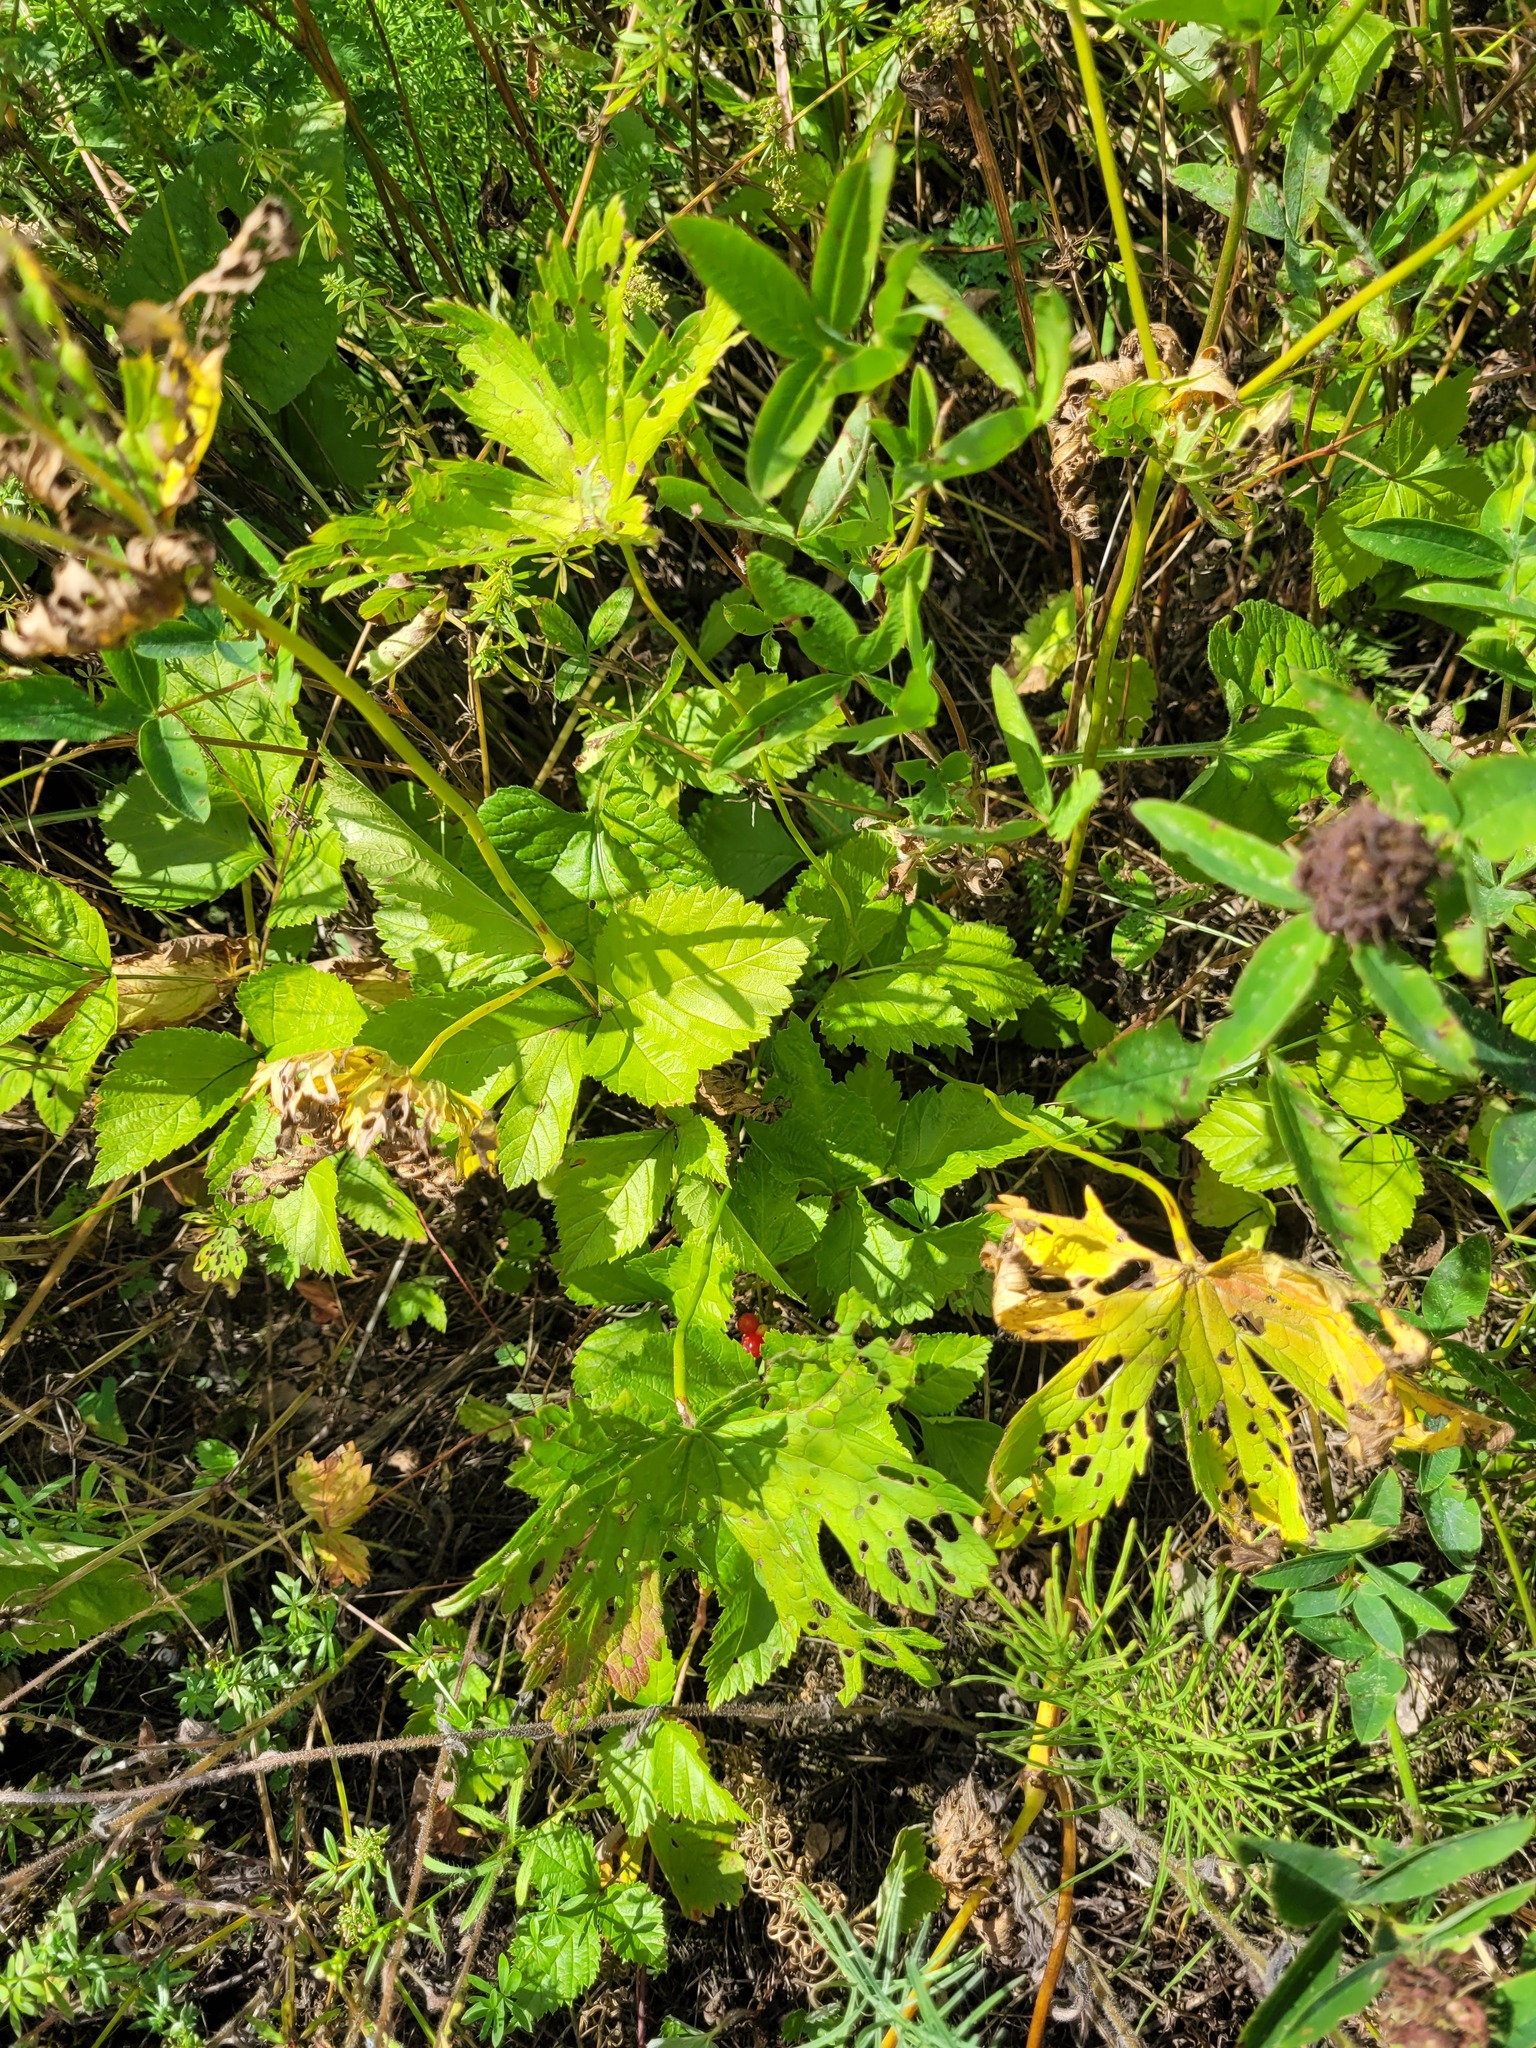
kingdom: Plantae
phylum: Tracheophyta
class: Magnoliopsida
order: Rosales
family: Rosaceae
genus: Rubus
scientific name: Rubus saxatilis
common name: Stone bramble
